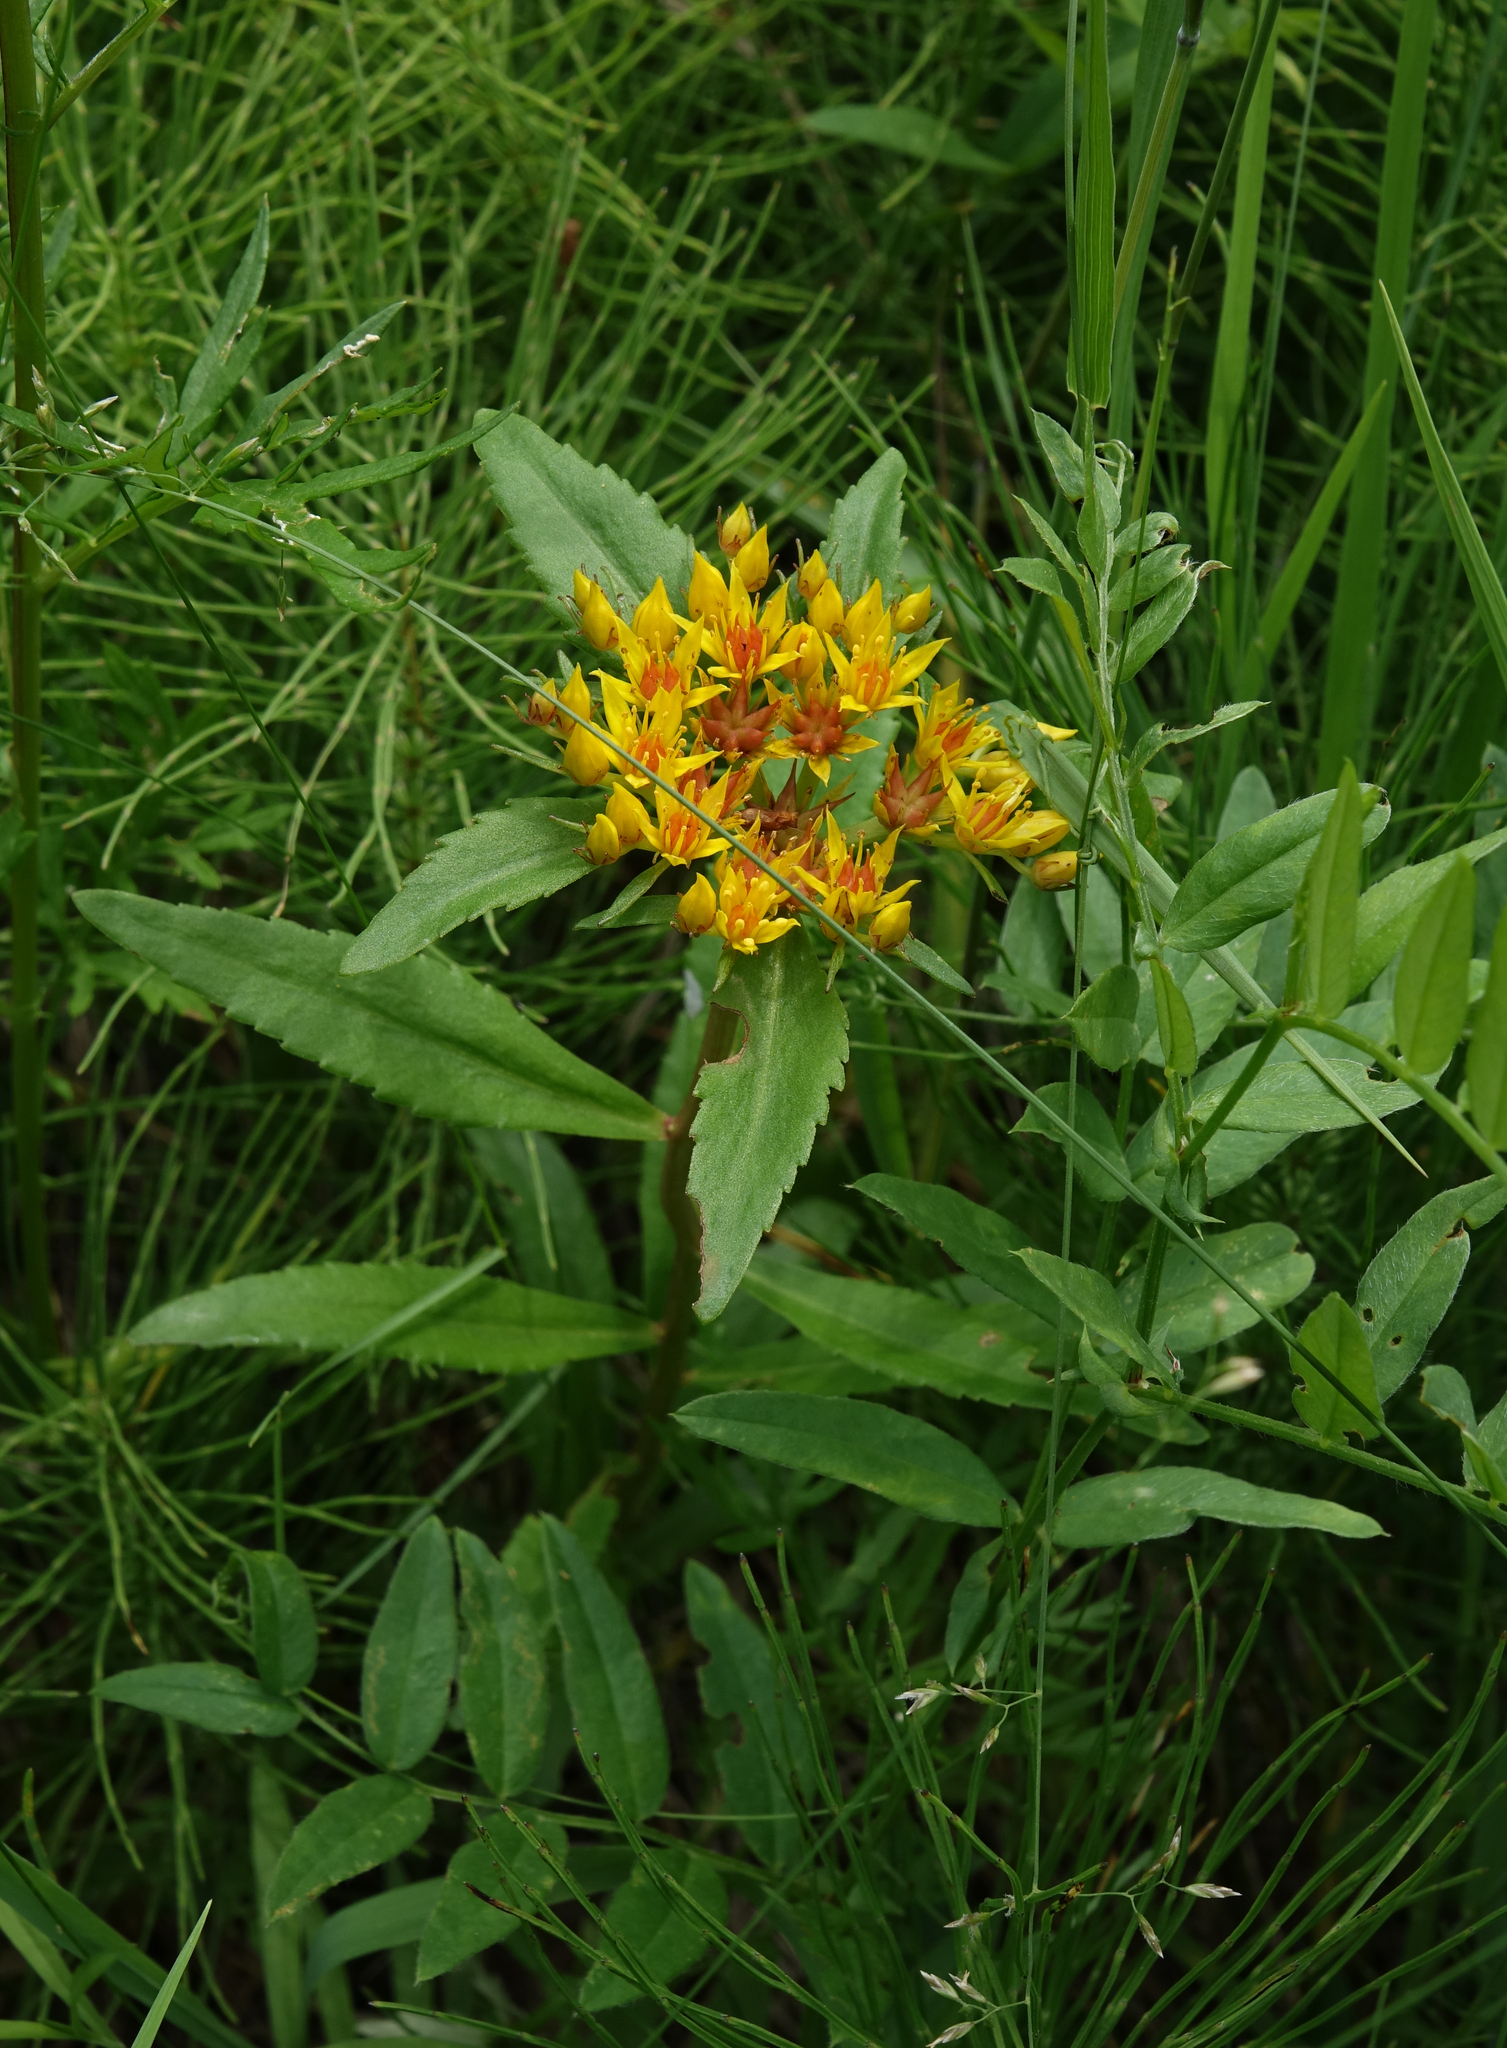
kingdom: Plantae
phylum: Tracheophyta
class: Magnoliopsida
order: Saxifragales
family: Crassulaceae
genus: Phedimus
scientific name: Phedimus aizoon
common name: Orpin aizoon
